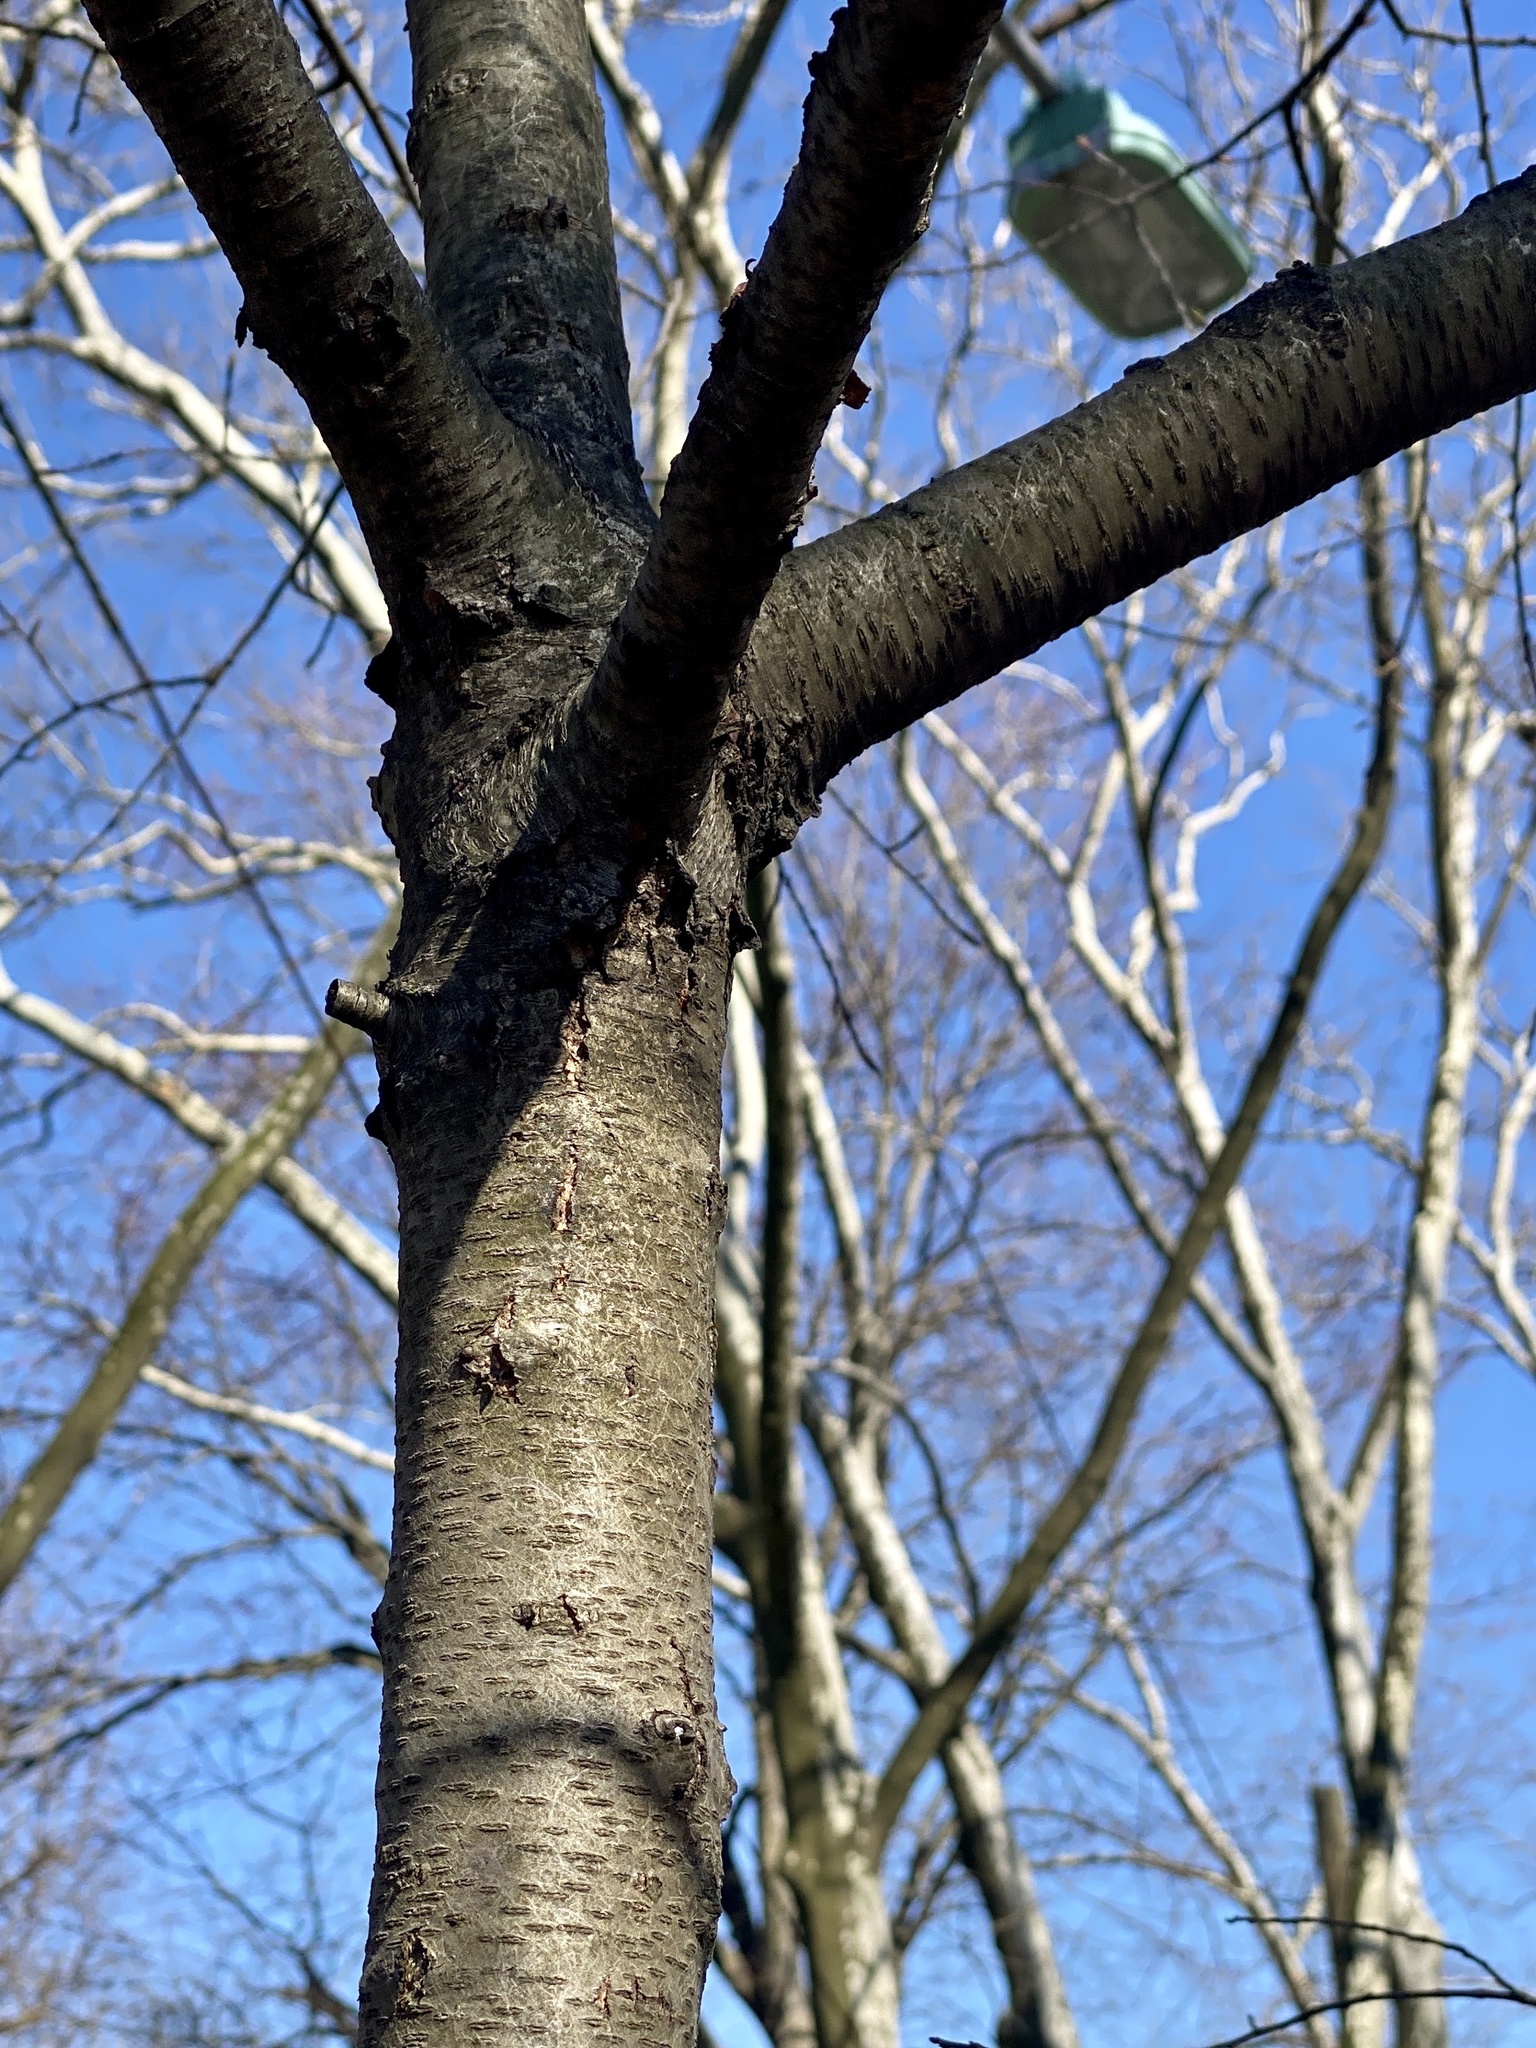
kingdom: Plantae
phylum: Tracheophyta
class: Magnoliopsida
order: Rosales
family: Rosaceae
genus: Prunus
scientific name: Prunus serotina
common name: Black cherry
